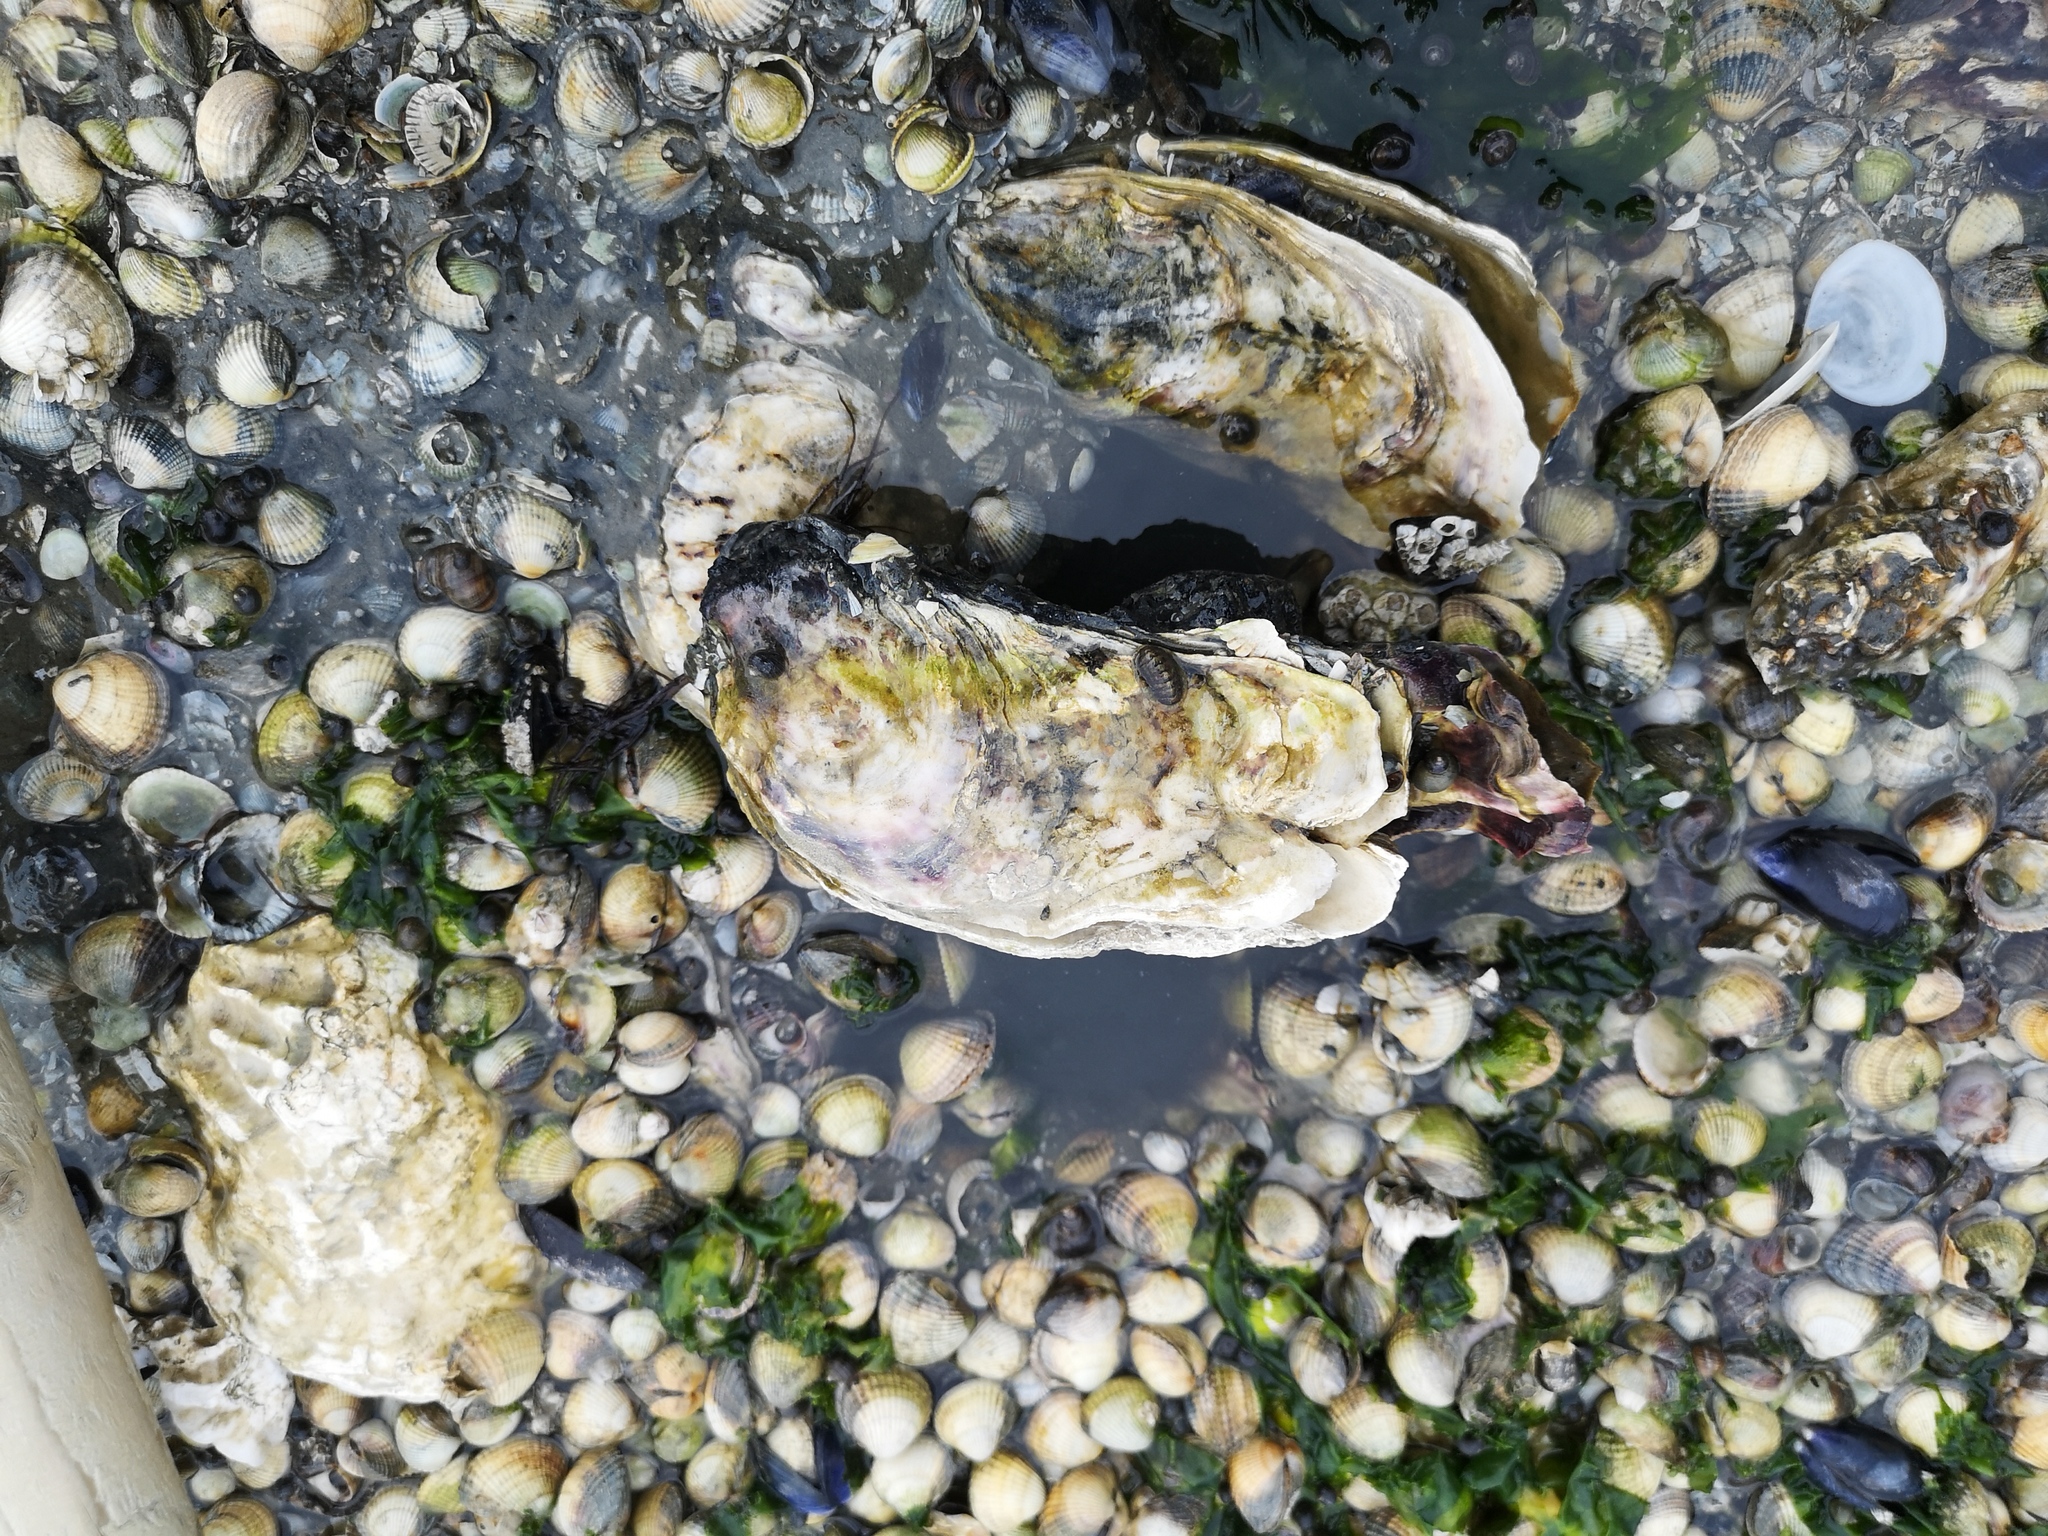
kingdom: Animalia
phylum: Mollusca
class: Bivalvia
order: Ostreida
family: Ostreidae
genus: Magallana
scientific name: Magallana gigas
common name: Pacific oyster
